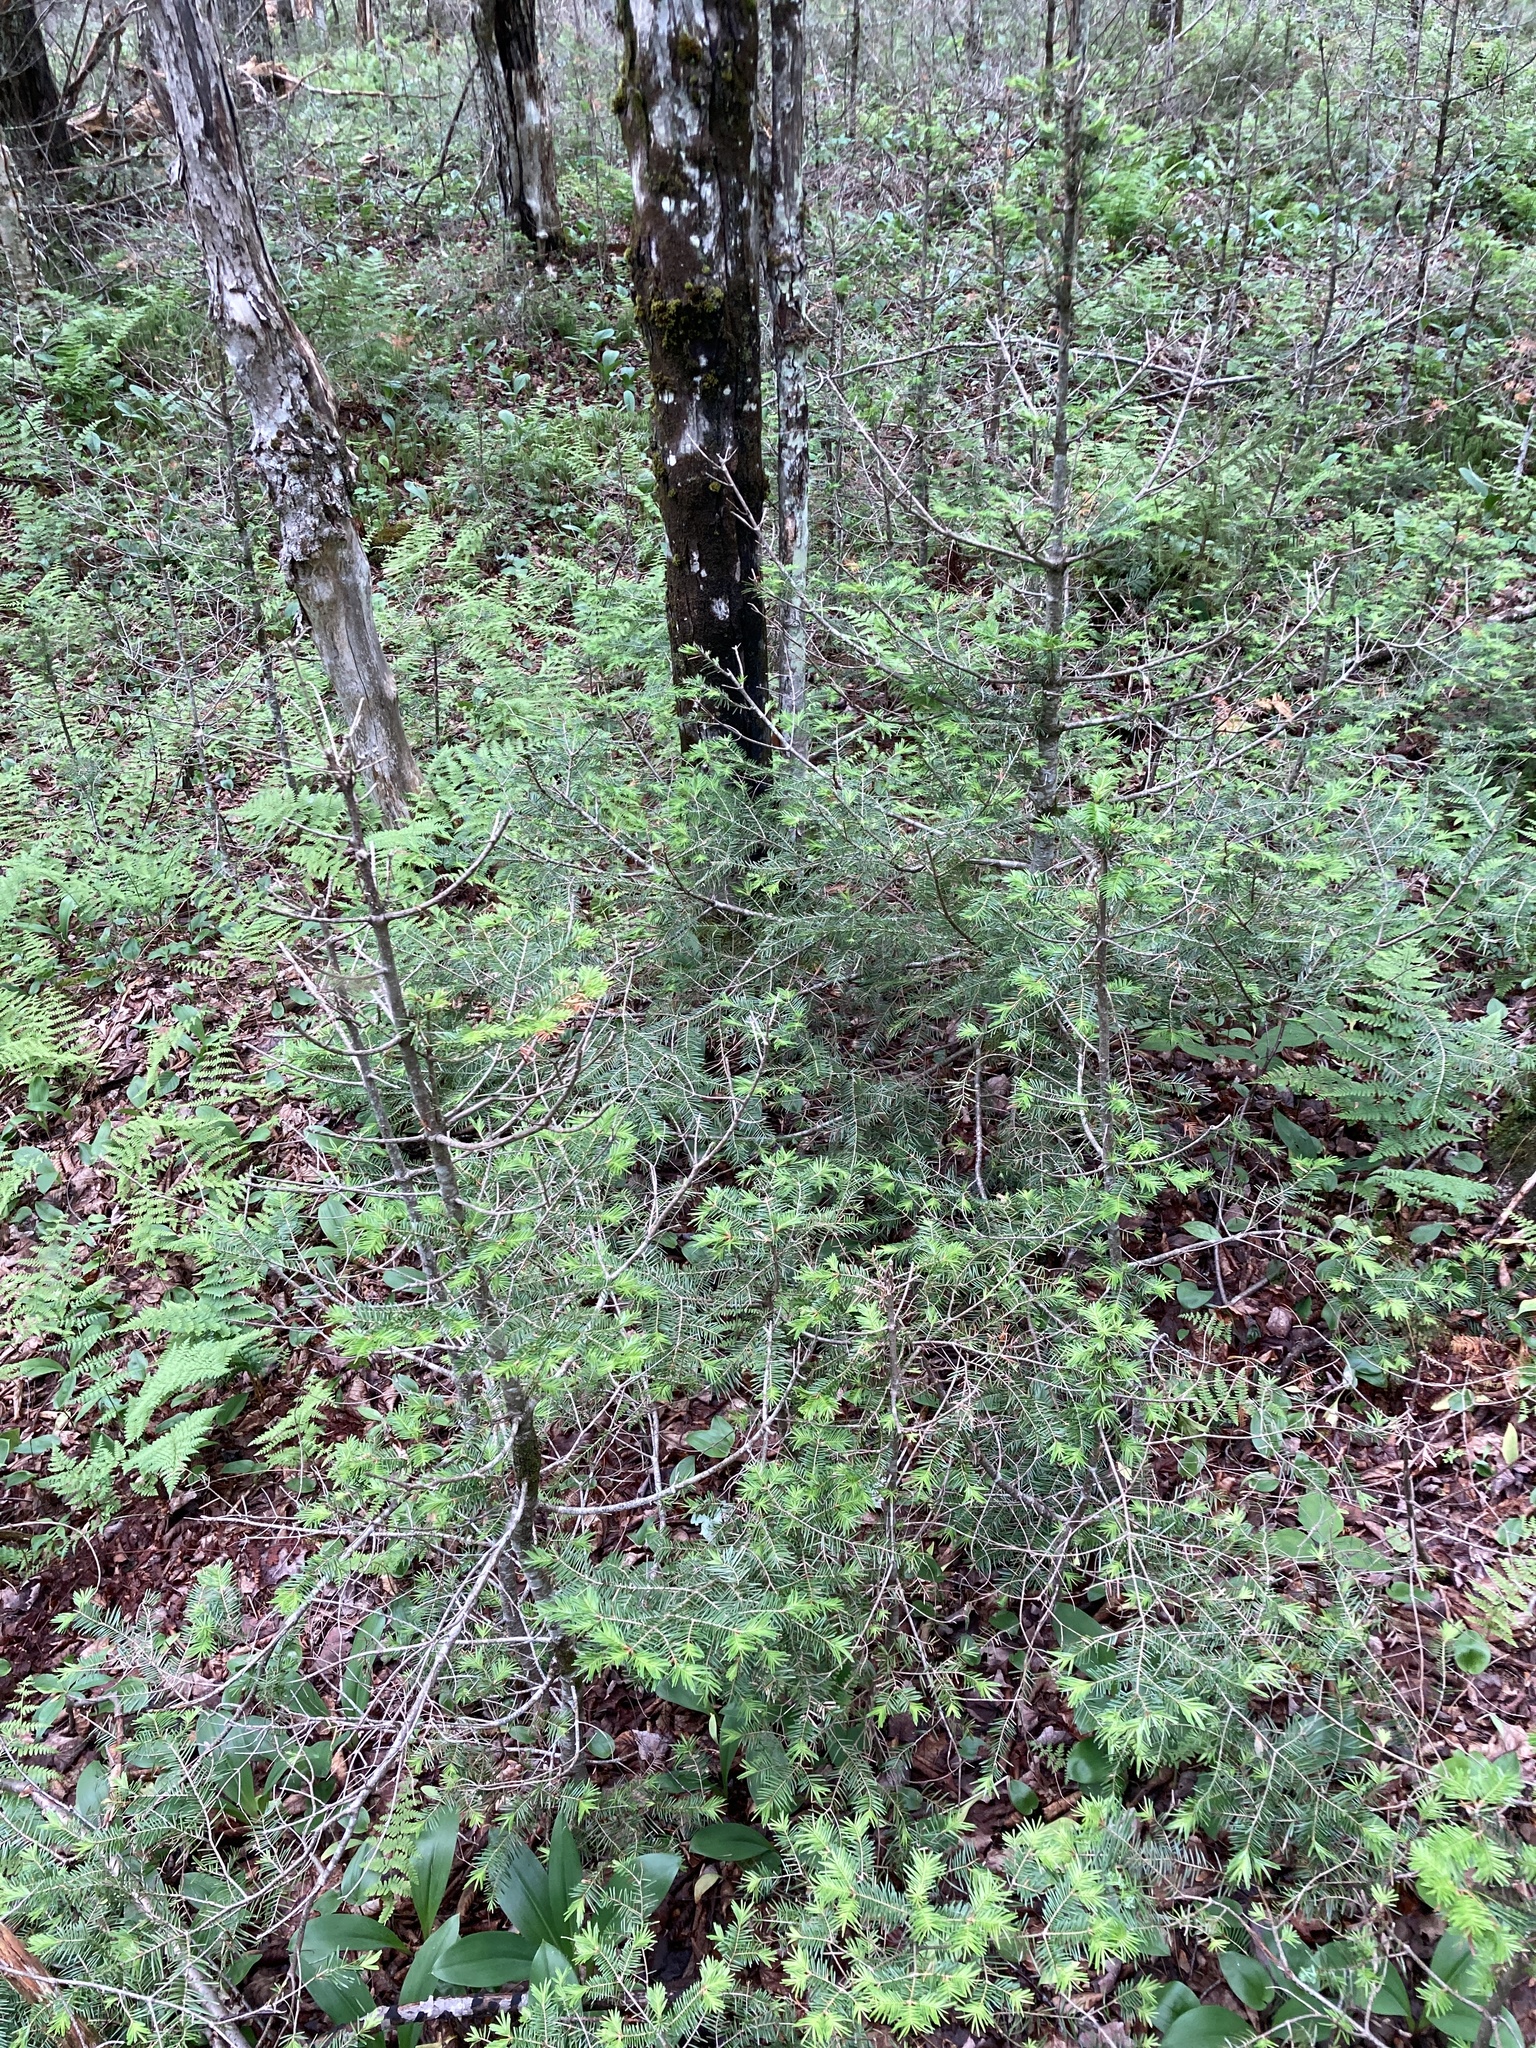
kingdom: Plantae
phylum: Tracheophyta
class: Pinopsida
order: Pinales
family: Pinaceae
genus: Abies
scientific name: Abies balsamea
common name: Balsam fir
